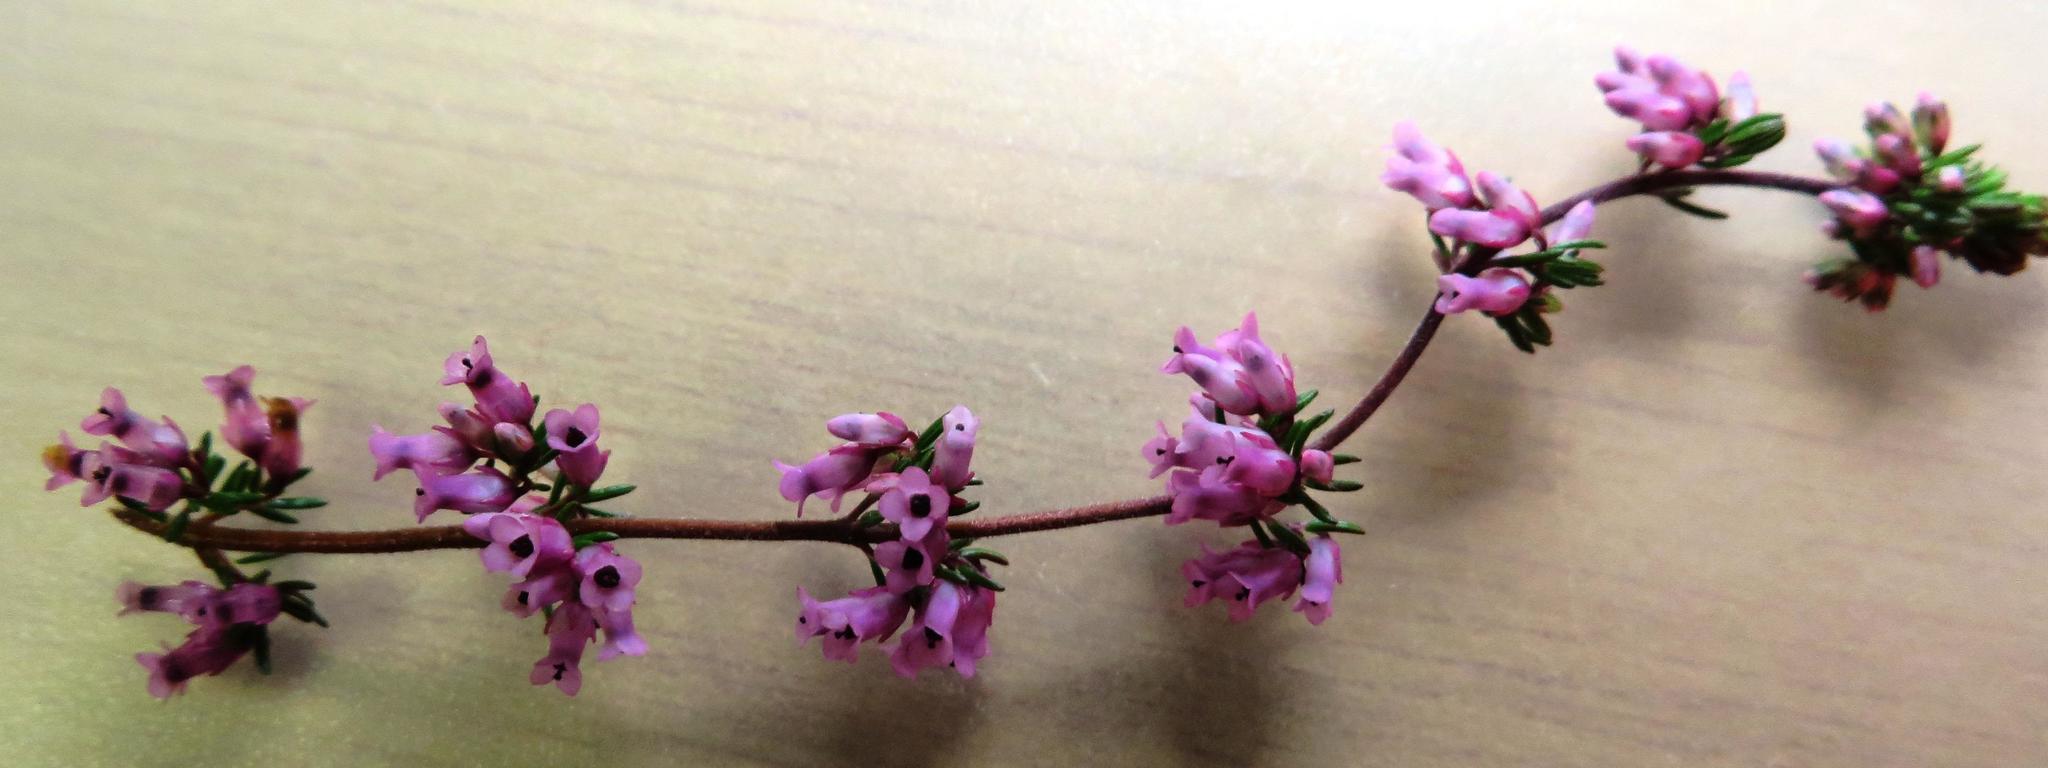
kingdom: Plantae
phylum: Tracheophyta
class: Magnoliopsida
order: Ericales
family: Ericaceae
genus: Erica
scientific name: Erica intervallaris
